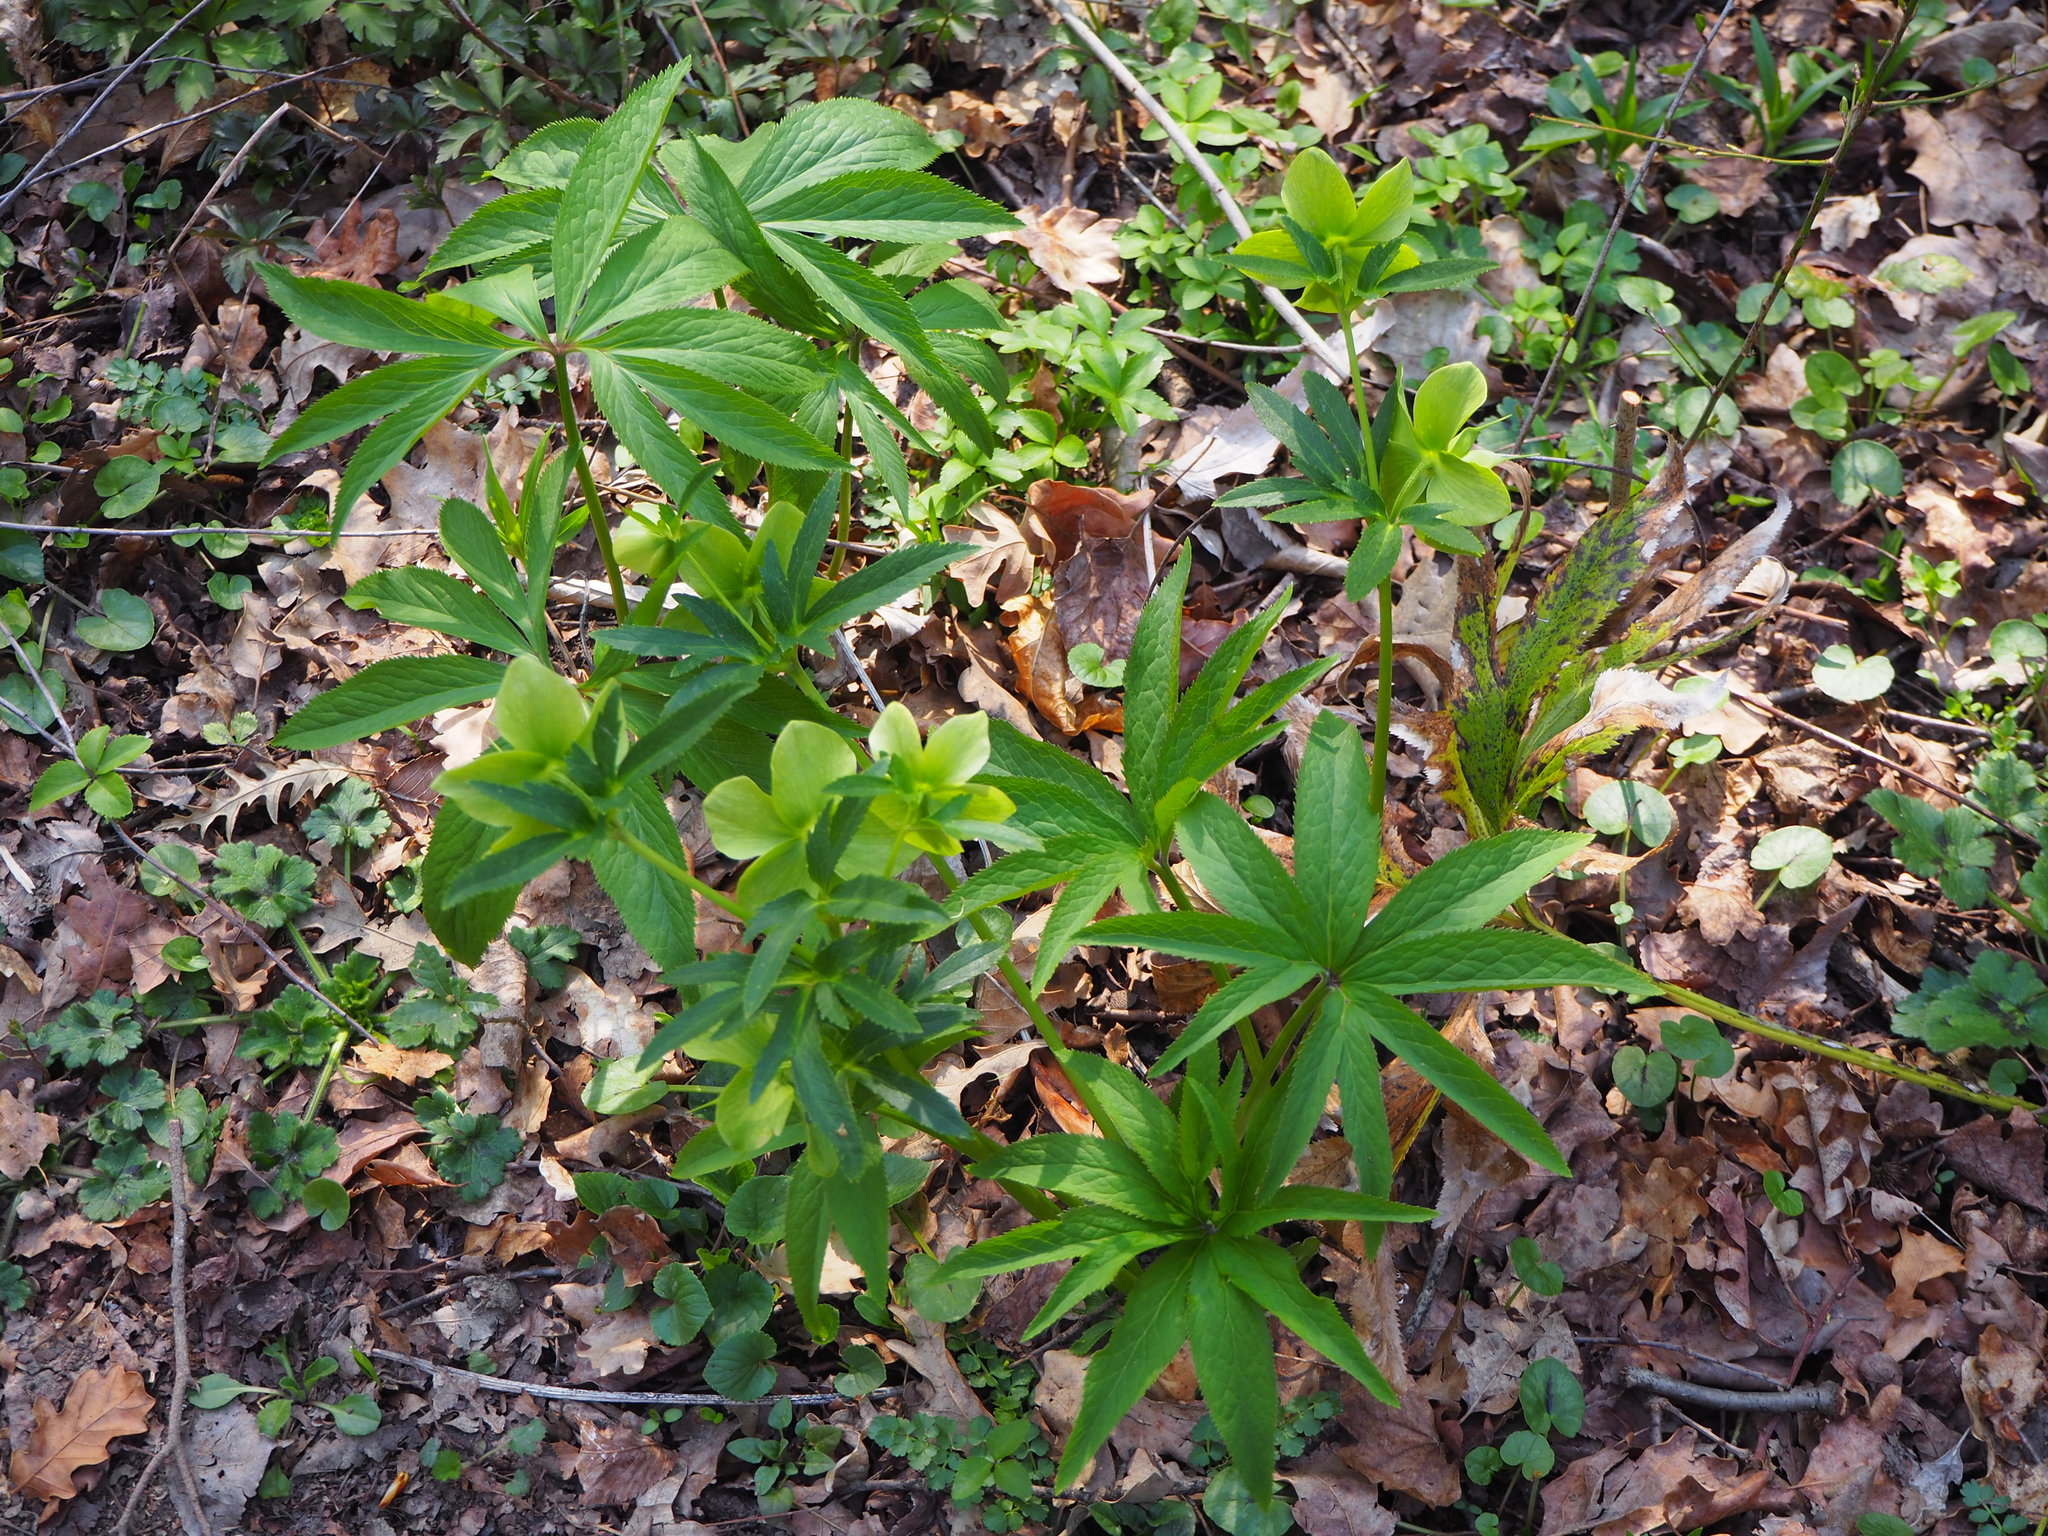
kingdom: Plantae
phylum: Tracheophyta
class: Magnoliopsida
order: Ranunculales
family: Ranunculaceae
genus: Helleborus
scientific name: Helleborus viridis
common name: Green hellebore
